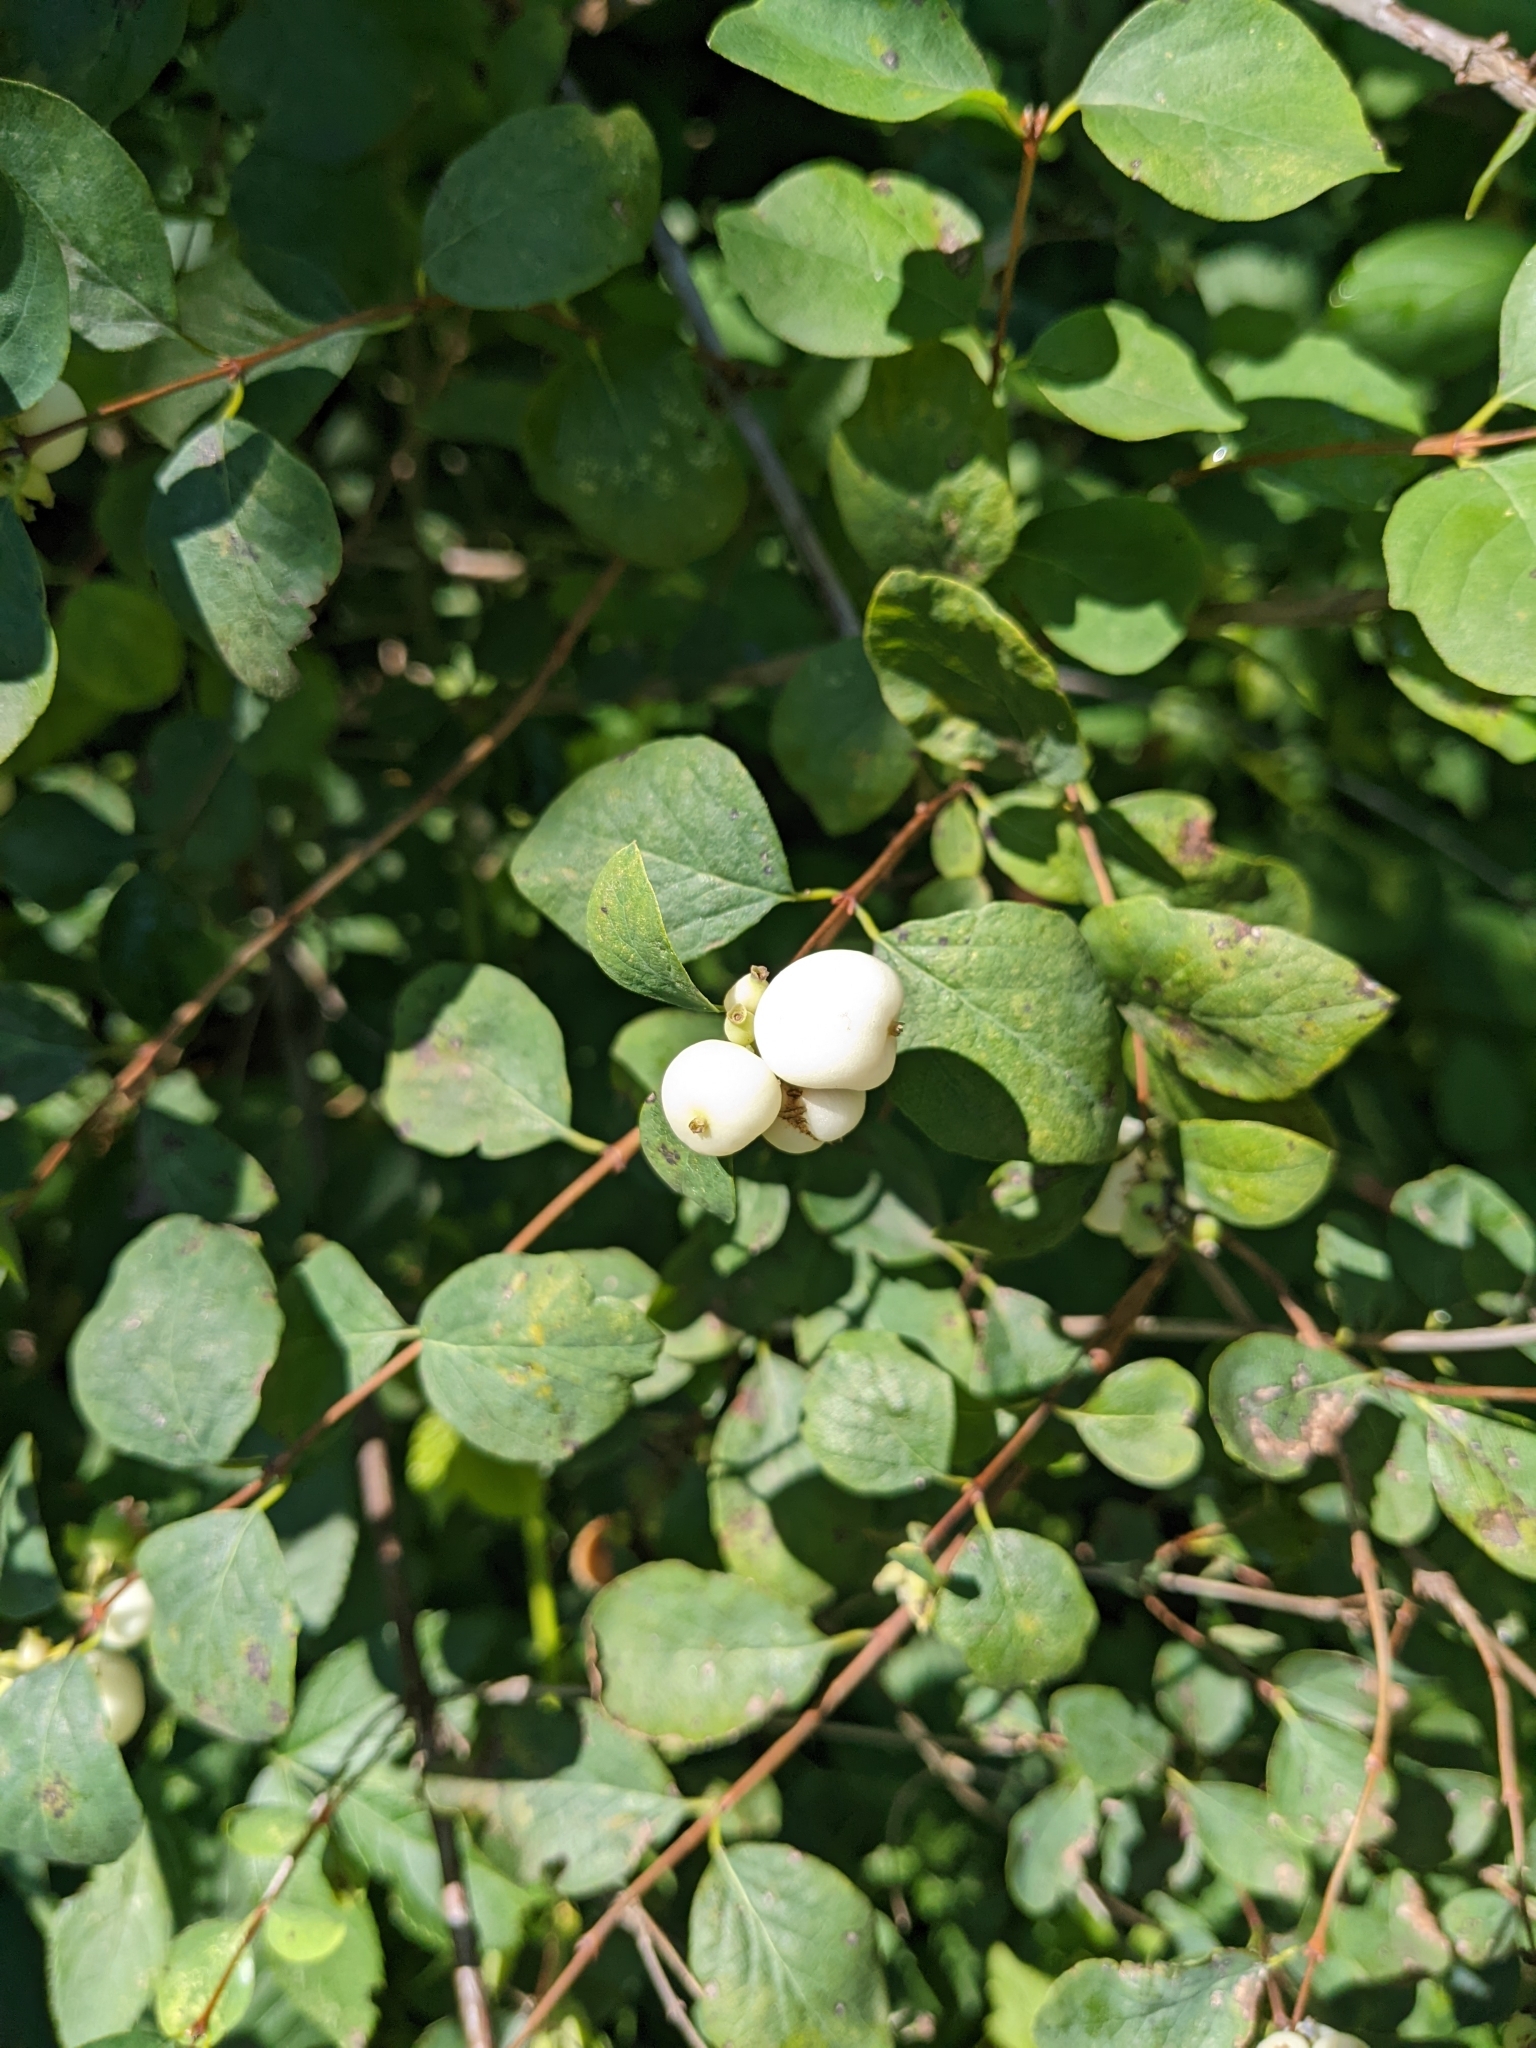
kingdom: Plantae
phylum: Tracheophyta
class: Magnoliopsida
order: Dipsacales
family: Caprifoliaceae
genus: Symphoricarpos
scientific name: Symphoricarpos albus
